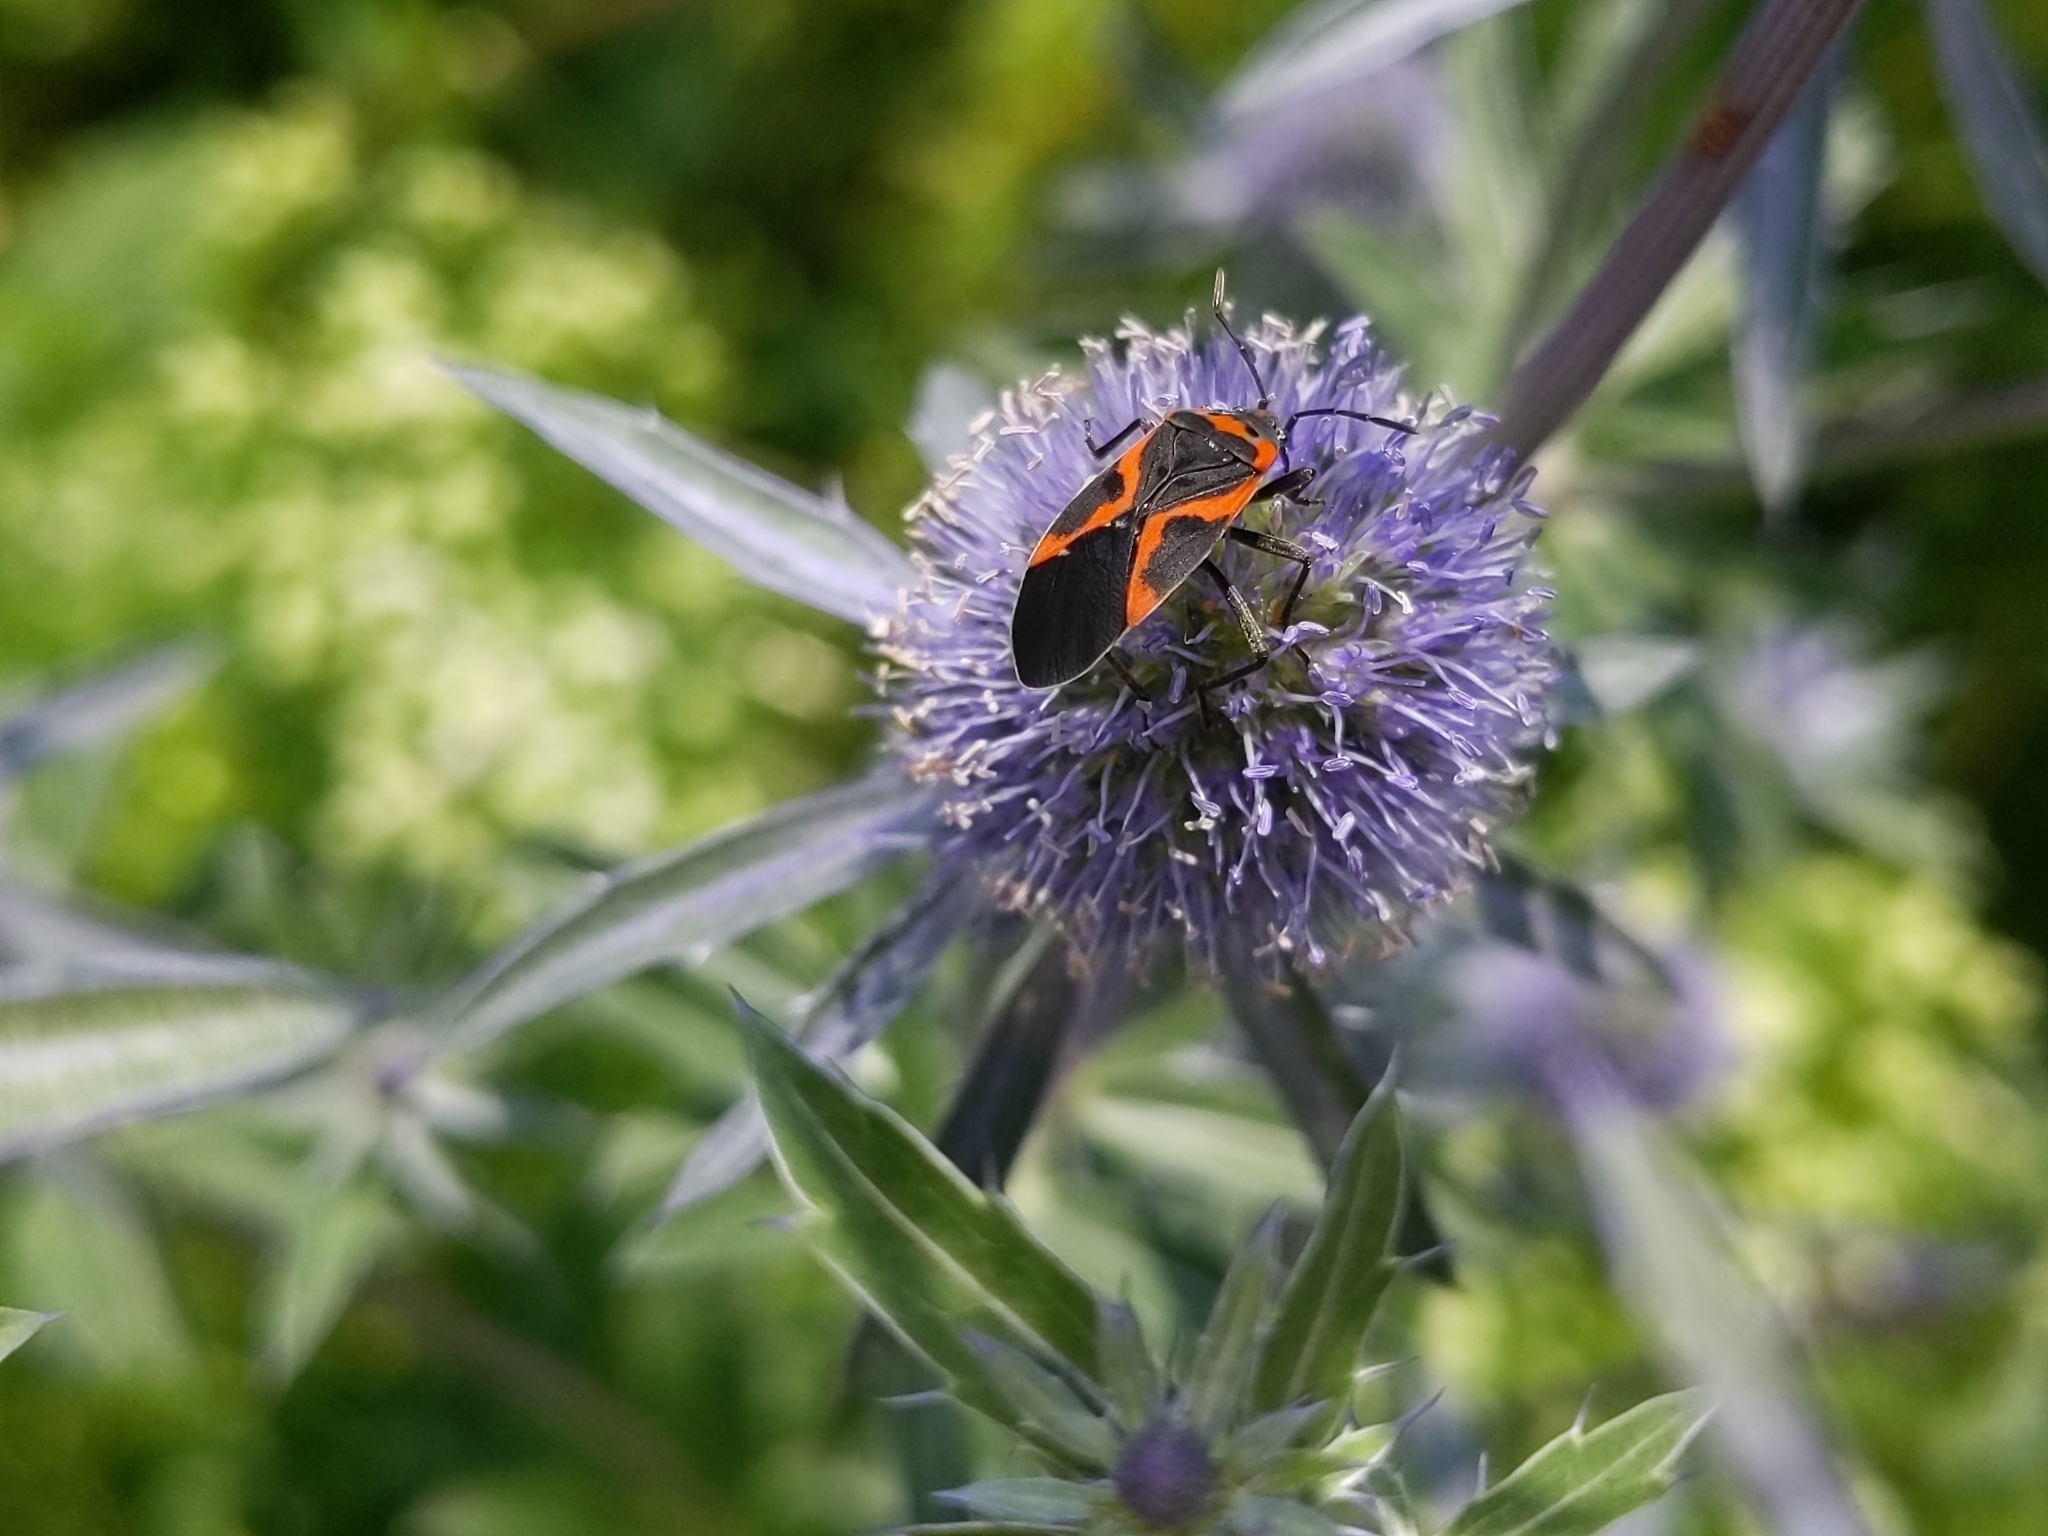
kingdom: Animalia
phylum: Arthropoda
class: Insecta
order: Hemiptera
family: Lygaeidae
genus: Lygaeus
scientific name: Lygaeus kalmii
